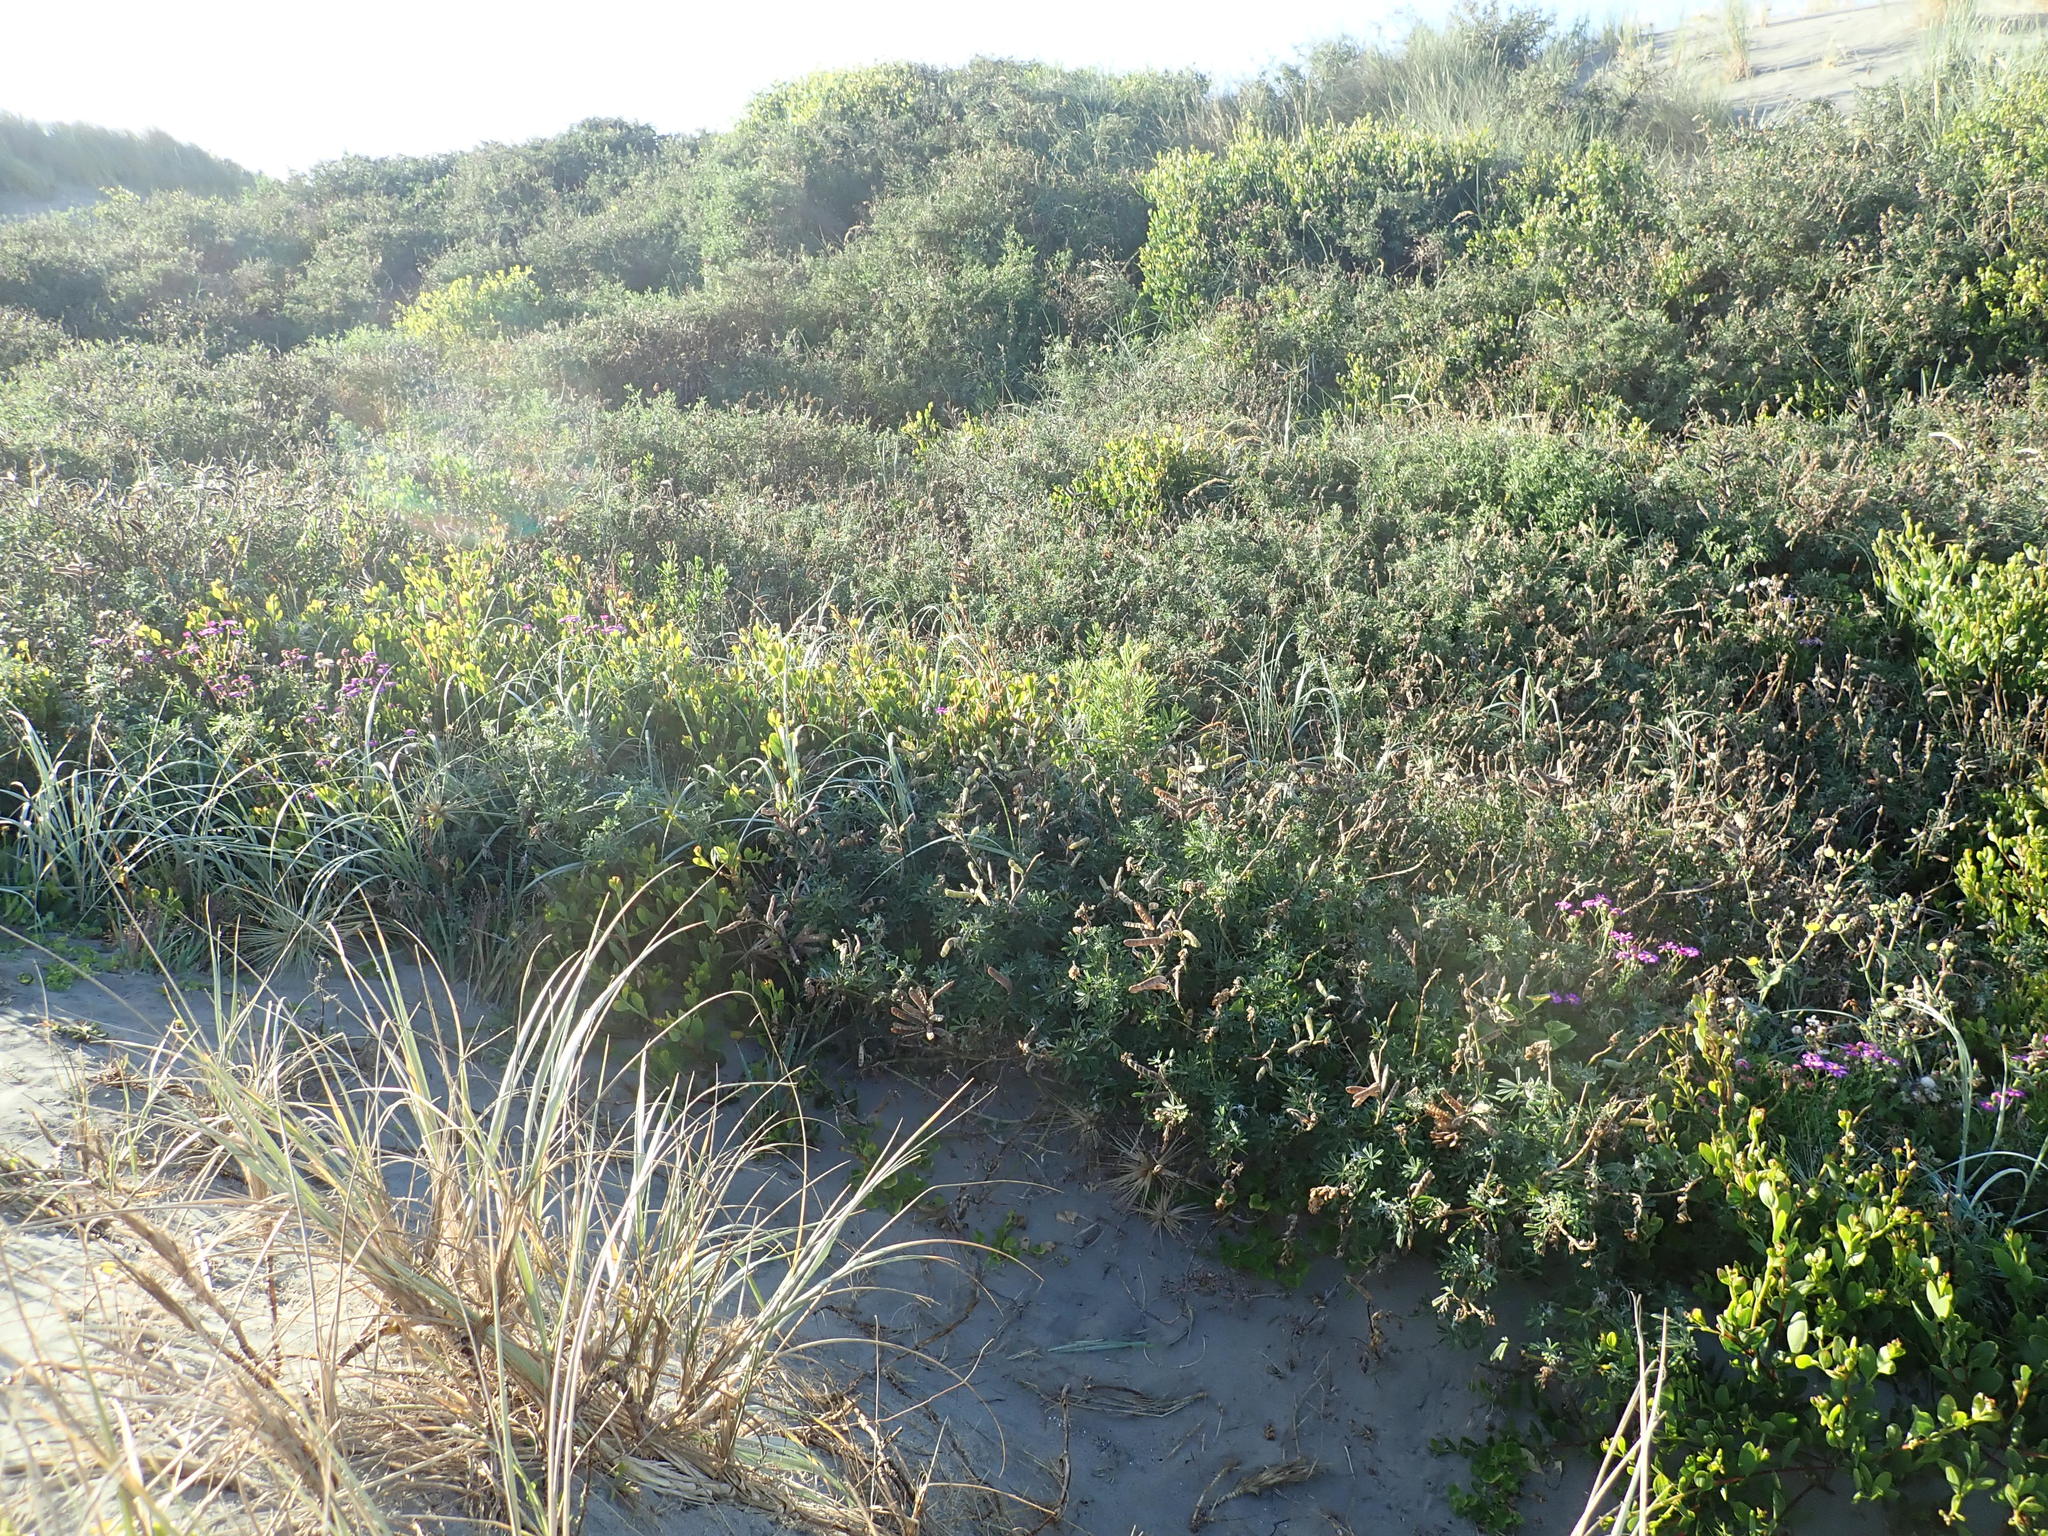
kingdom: Plantae
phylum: Tracheophyta
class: Magnoliopsida
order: Fabales
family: Fabaceae
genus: Acacia
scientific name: Acacia longifolia
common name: Sydney golden wattle
